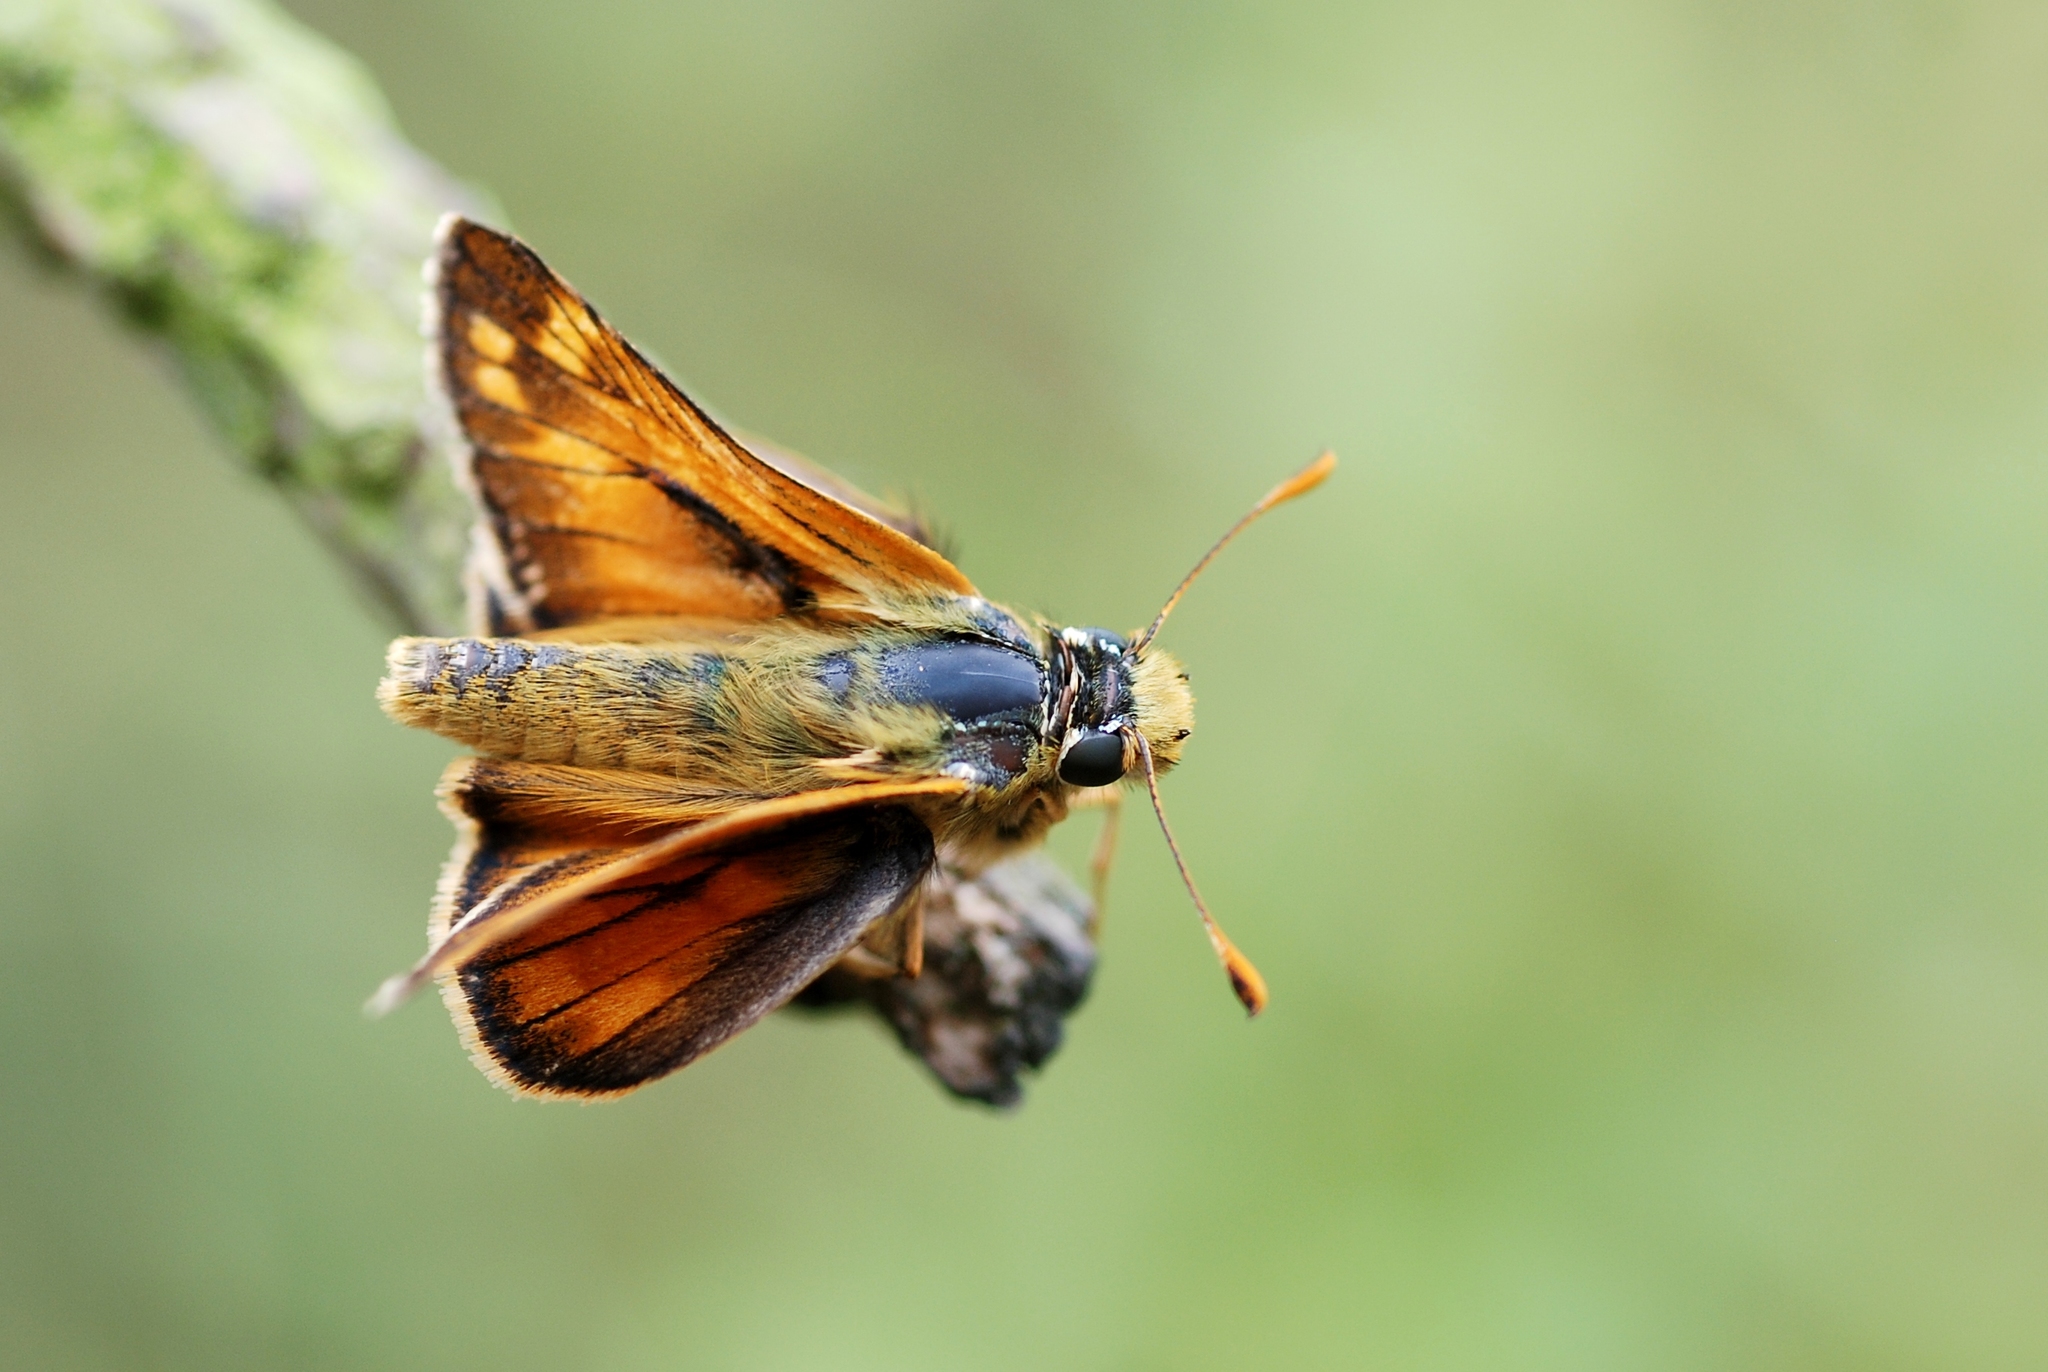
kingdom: Animalia
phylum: Arthropoda
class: Insecta
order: Lepidoptera
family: Hesperiidae
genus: Hesperia
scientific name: Hesperia comma
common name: Common branded skipper
